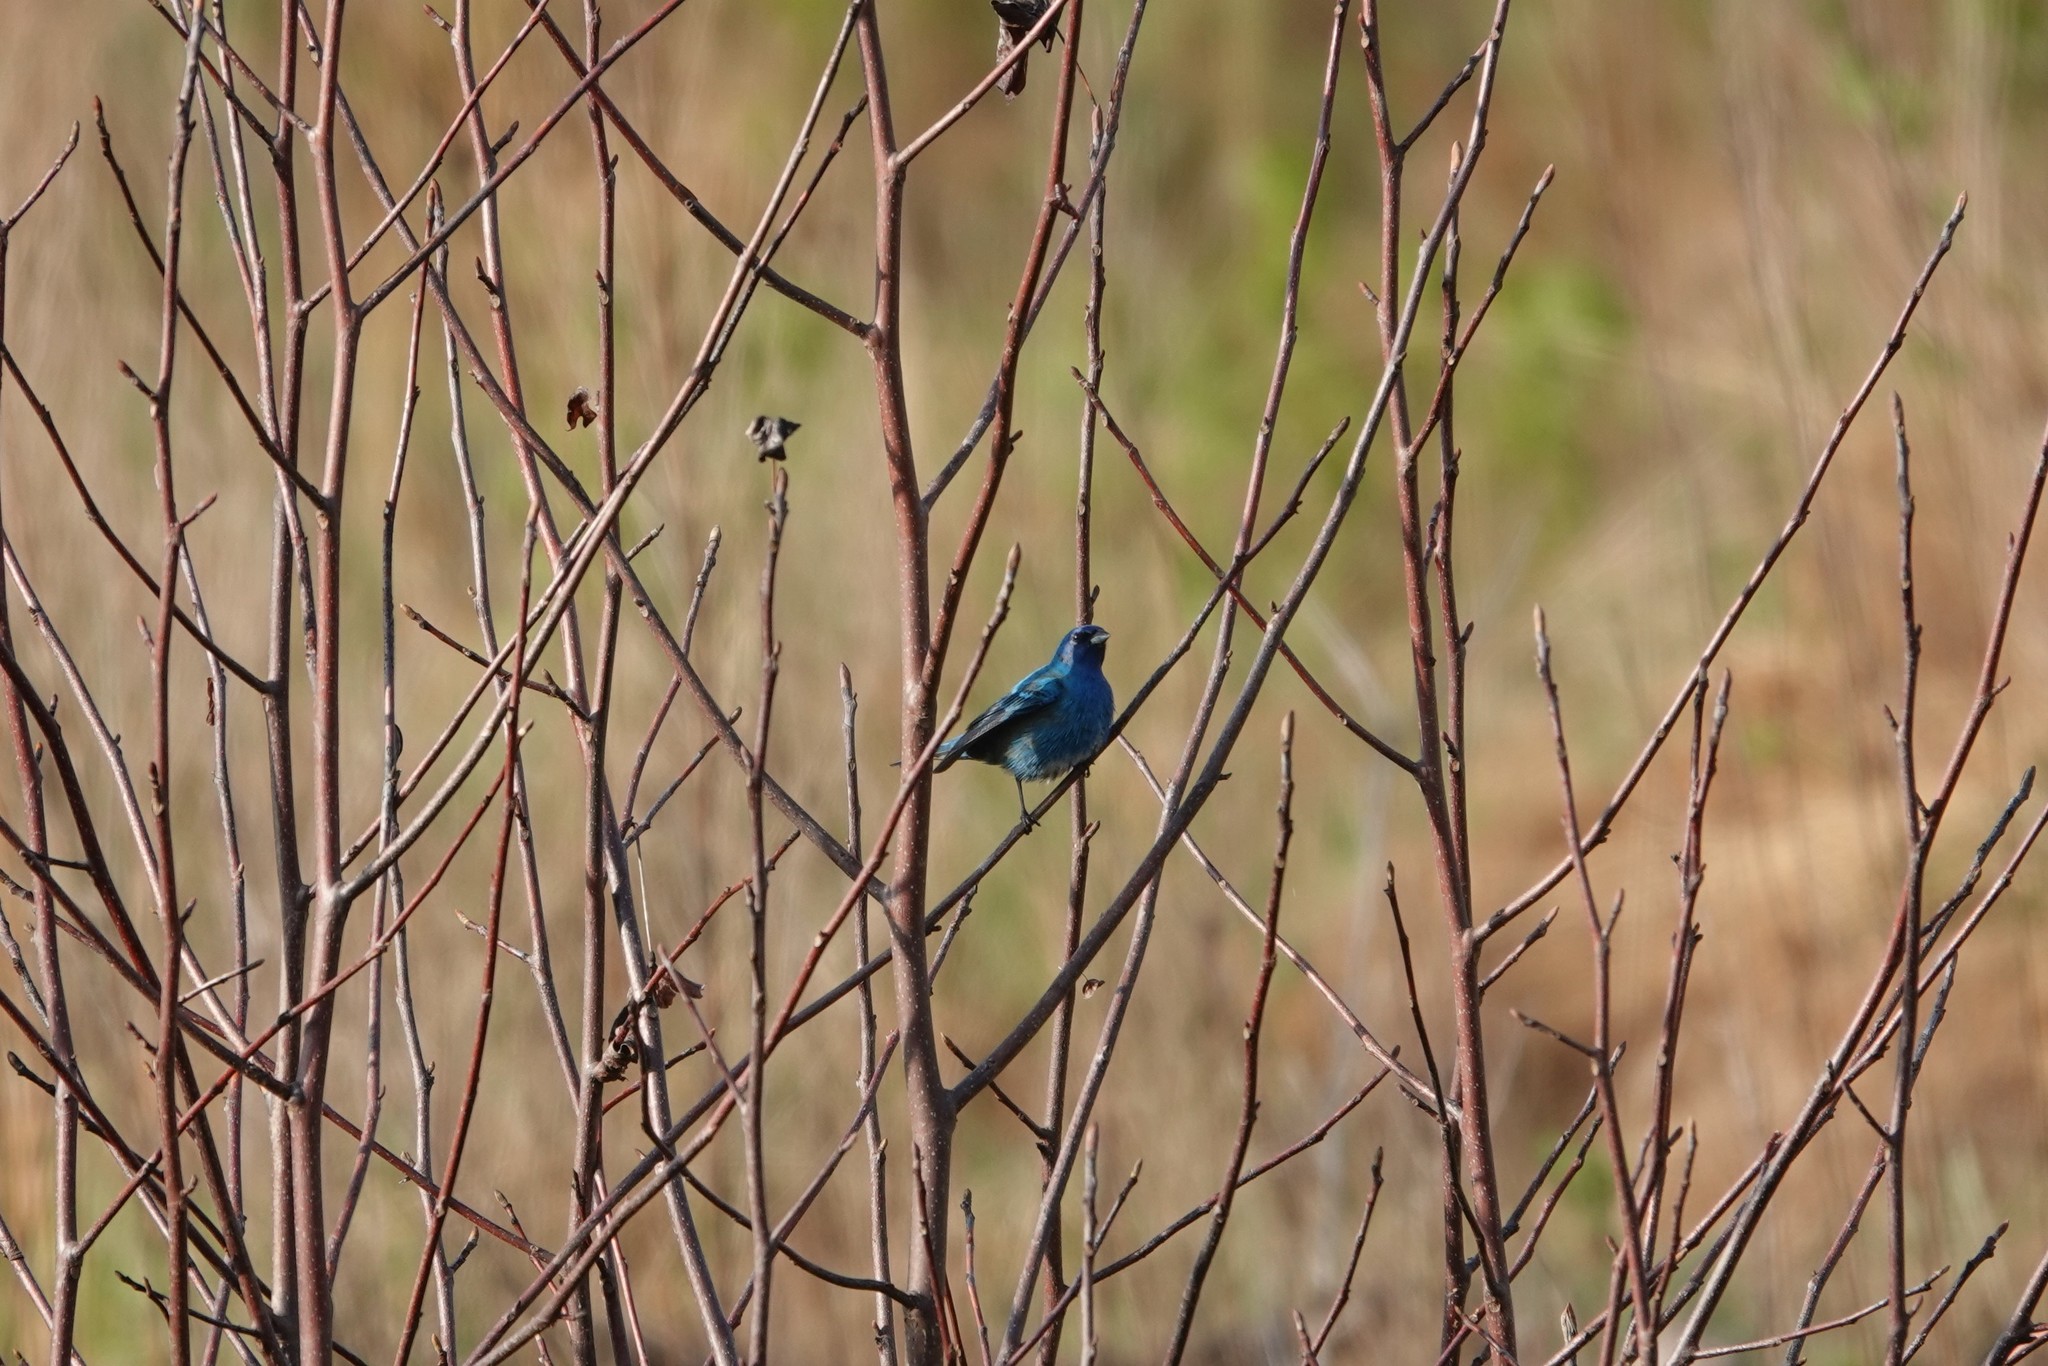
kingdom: Animalia
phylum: Chordata
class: Aves
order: Passeriformes
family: Cardinalidae
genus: Passerina
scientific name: Passerina cyanea
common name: Indigo bunting
